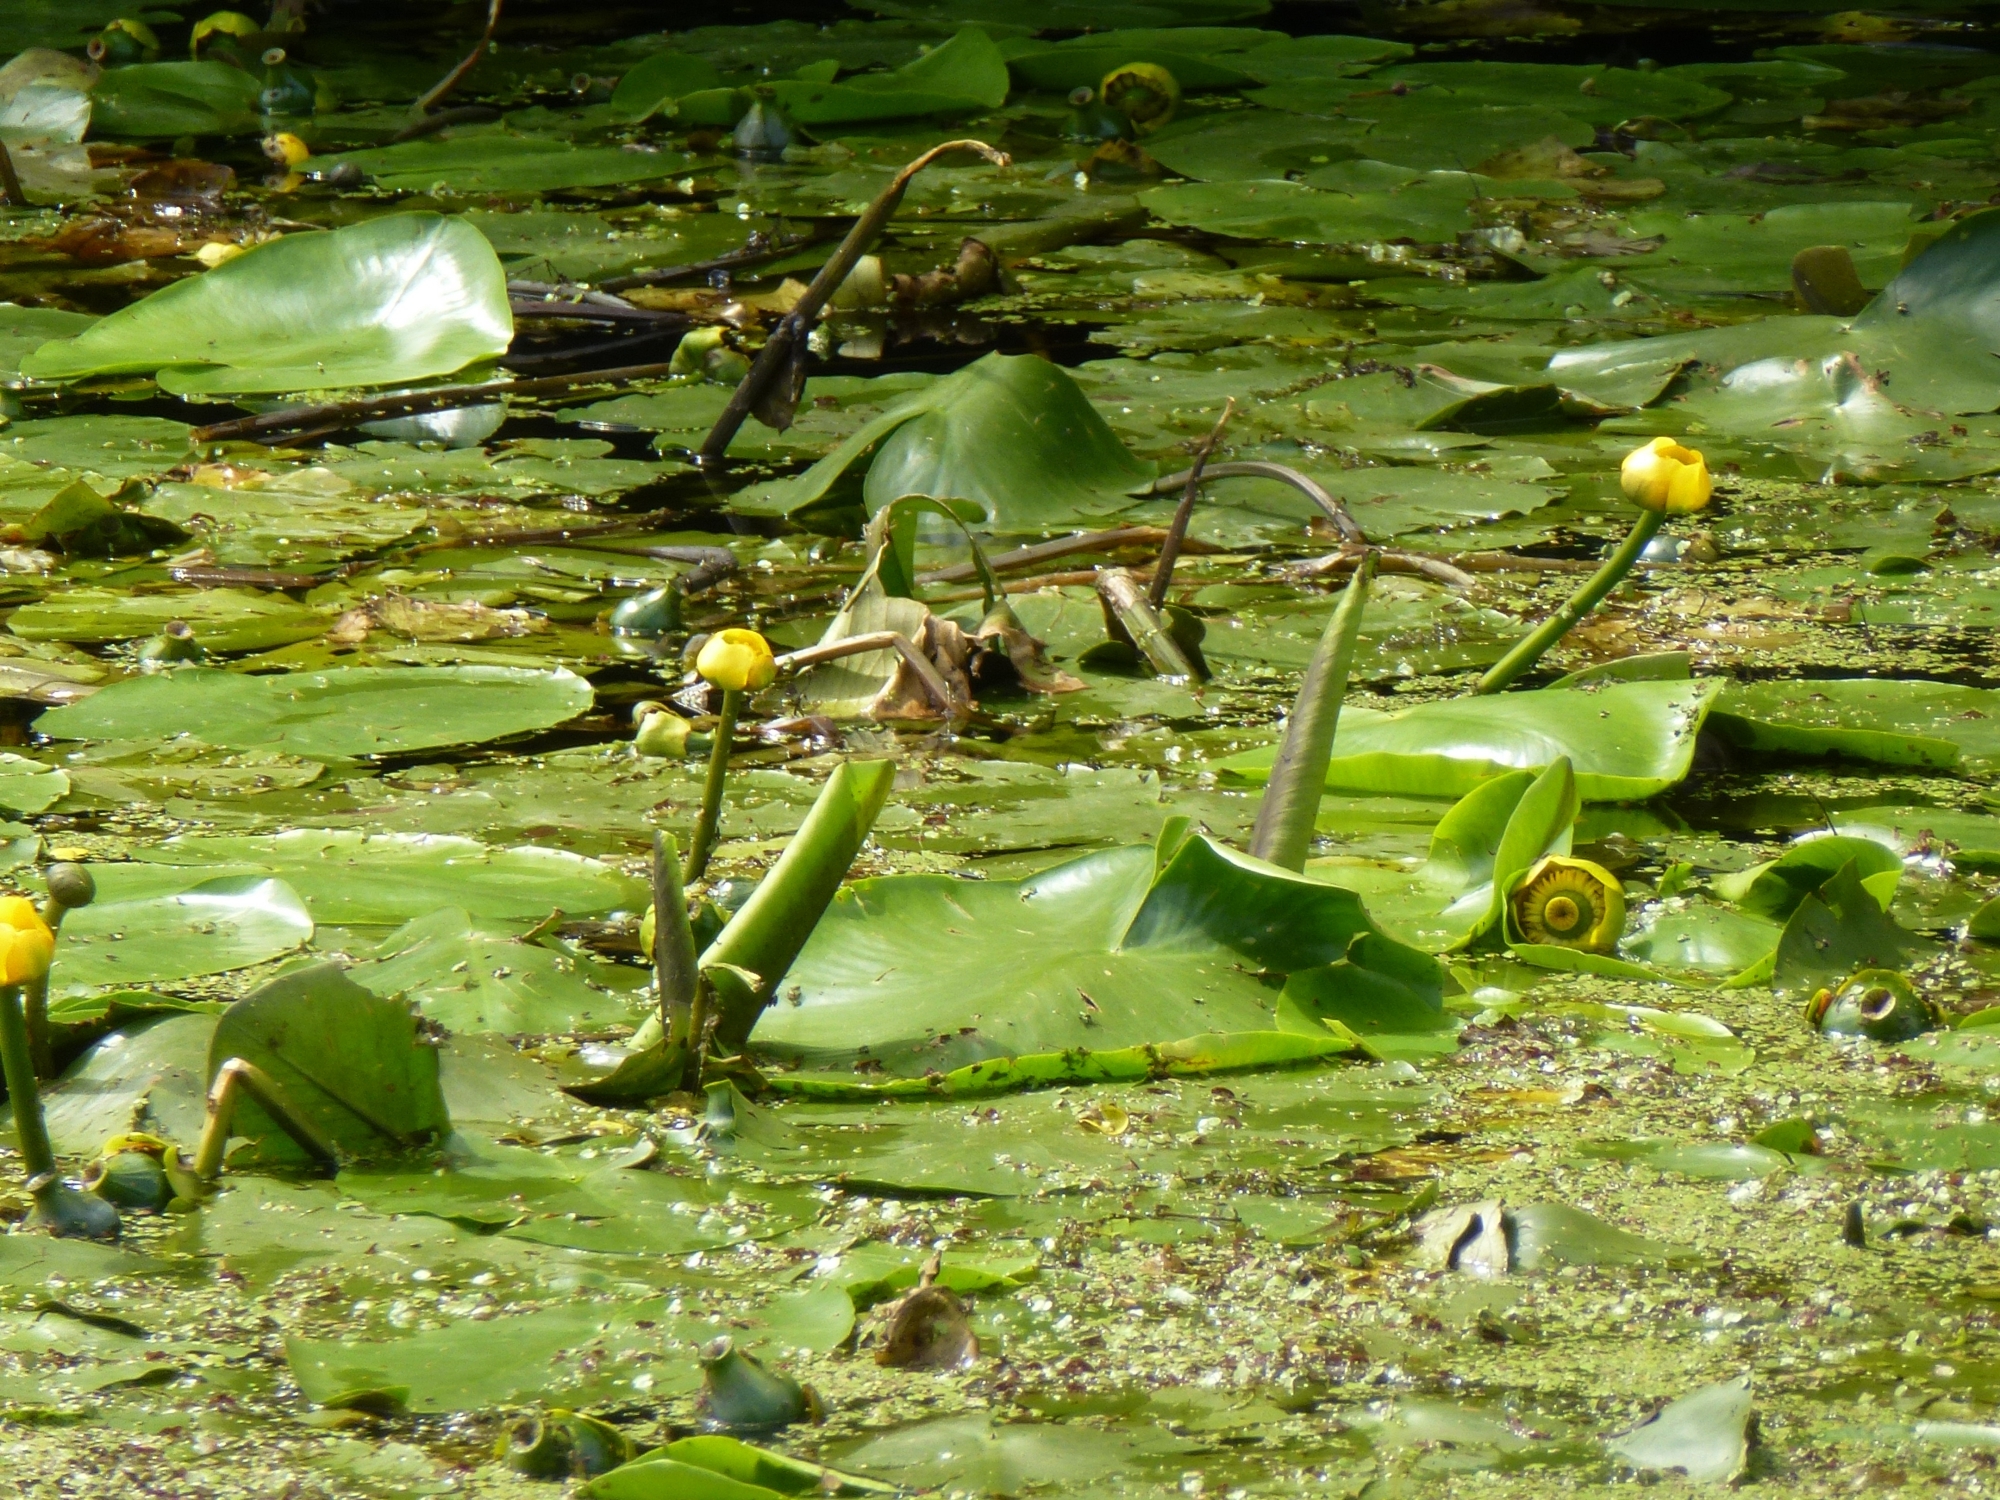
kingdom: Plantae
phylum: Tracheophyta
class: Magnoliopsida
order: Nymphaeales
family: Nymphaeaceae
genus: Nuphar
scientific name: Nuphar lutea
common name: Yellow water-lily
